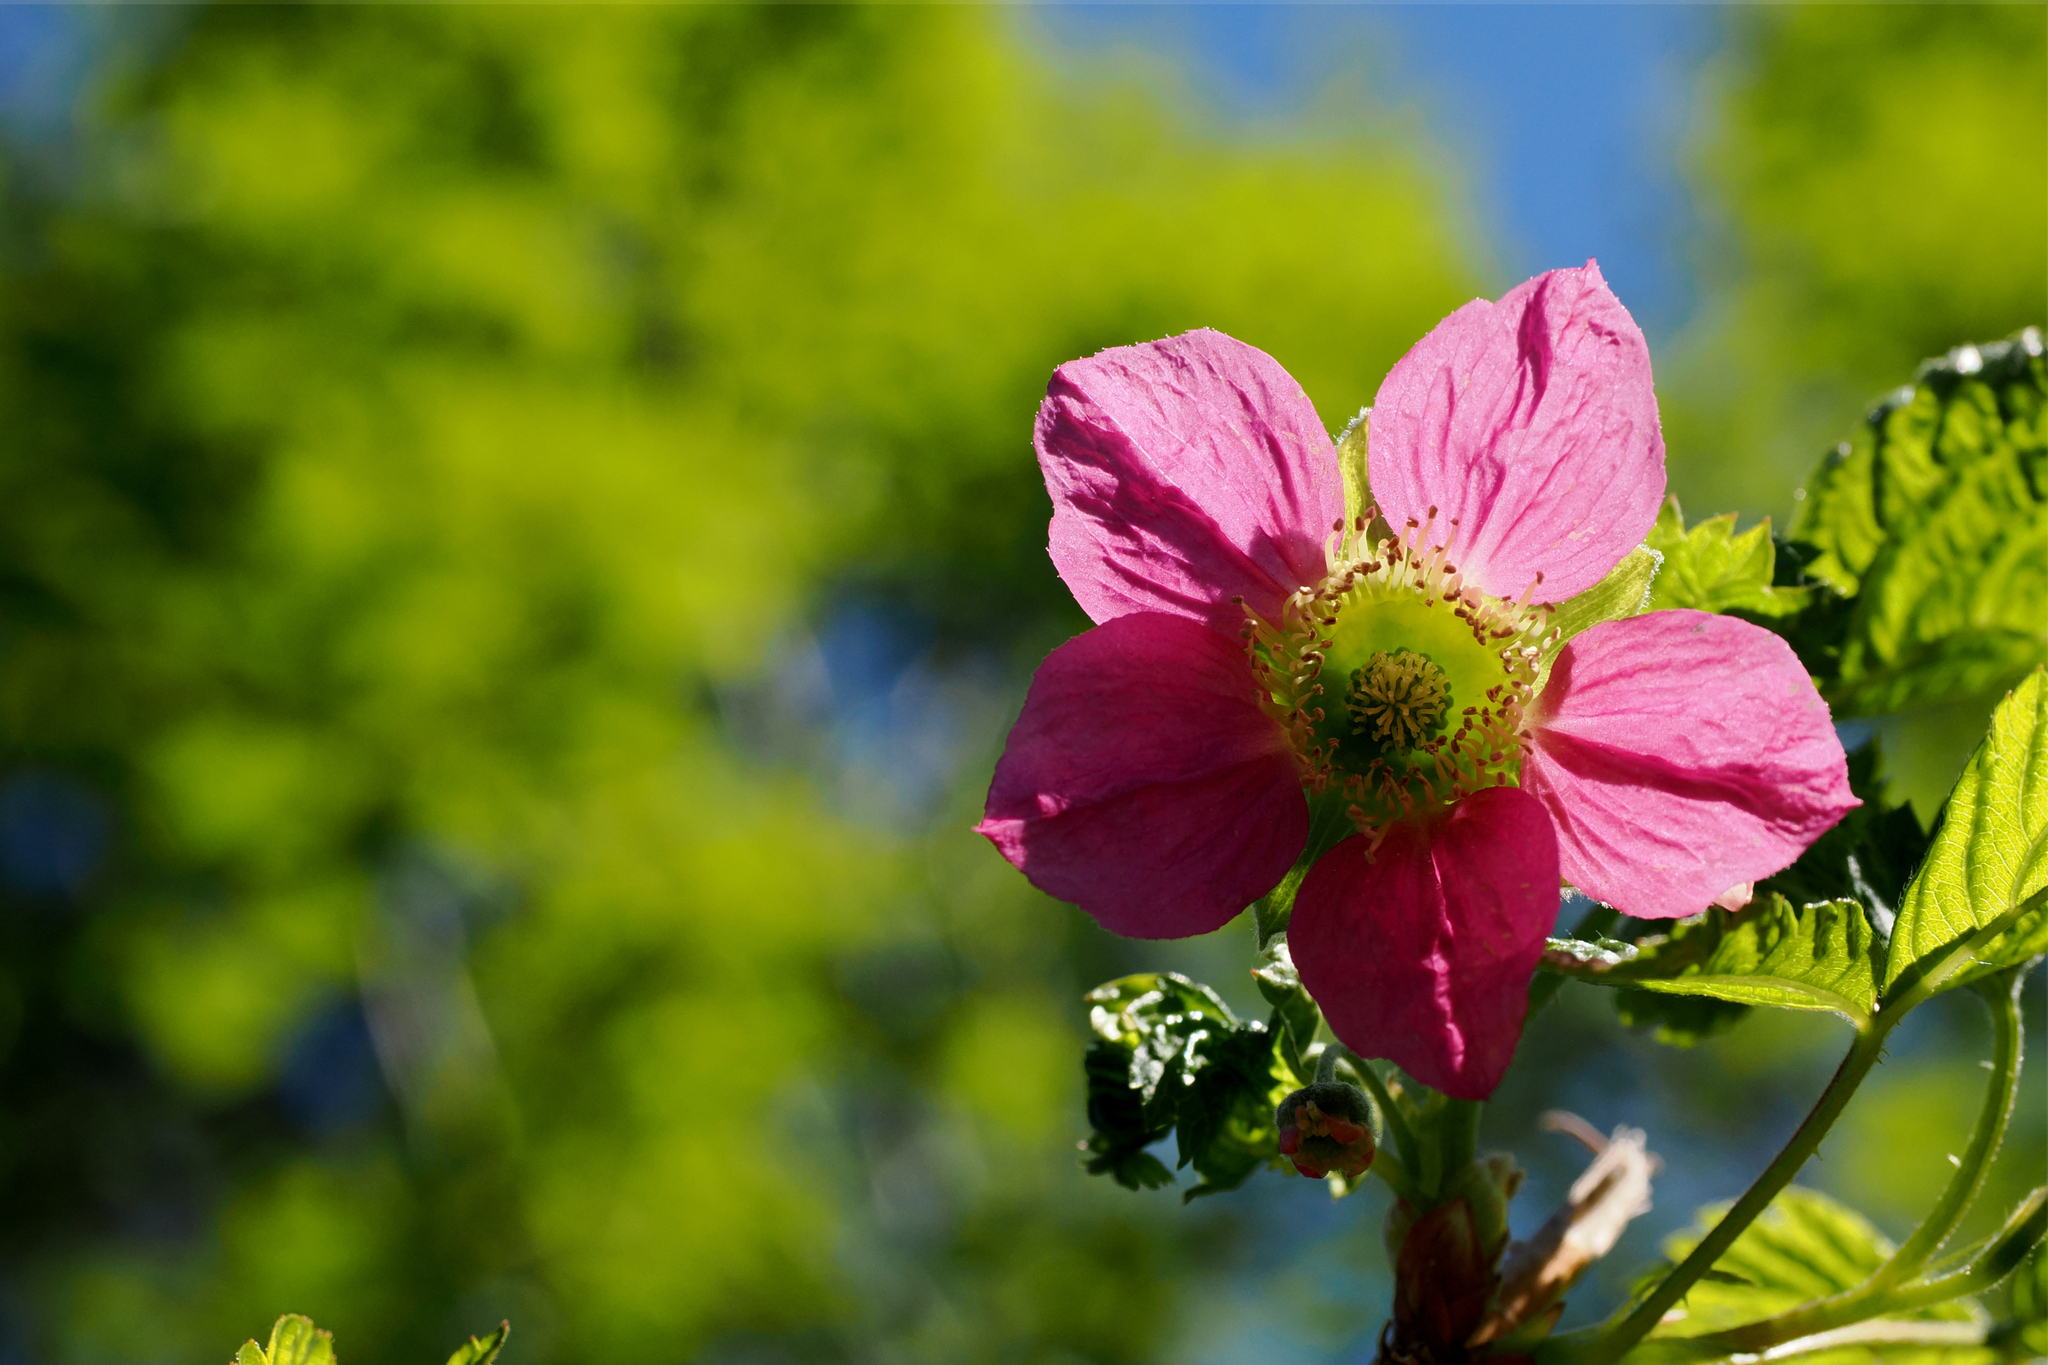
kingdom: Plantae
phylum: Tracheophyta
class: Magnoliopsida
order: Rosales
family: Rosaceae
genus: Rubus
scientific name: Rubus spectabilis
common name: Salmonberry
